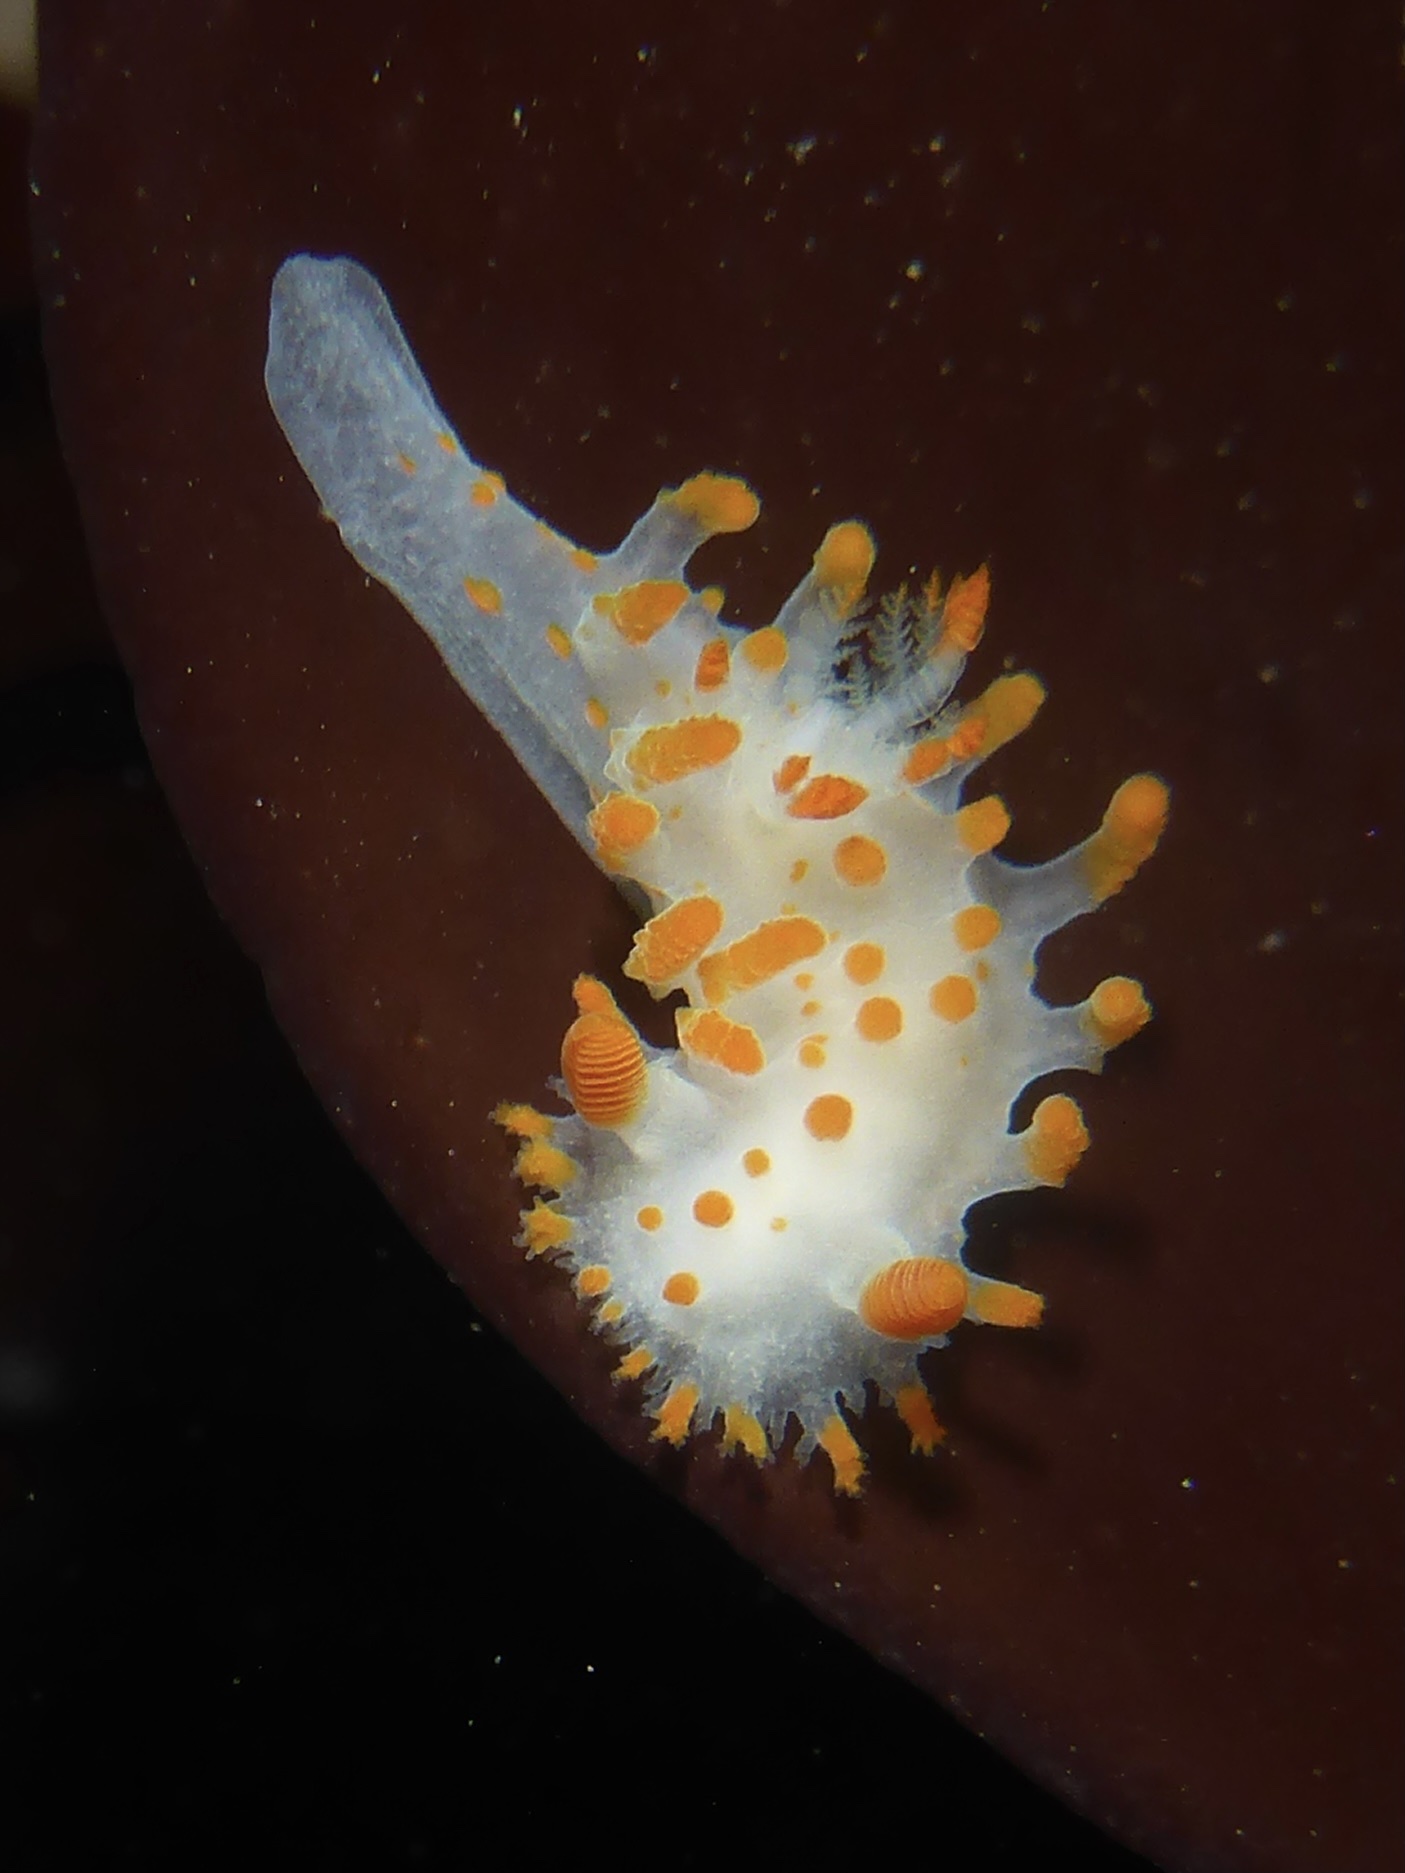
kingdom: Animalia
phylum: Mollusca
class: Gastropoda
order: Nudibranchia
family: Polyceridae
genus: Triopha
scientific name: Triopha catalinae
